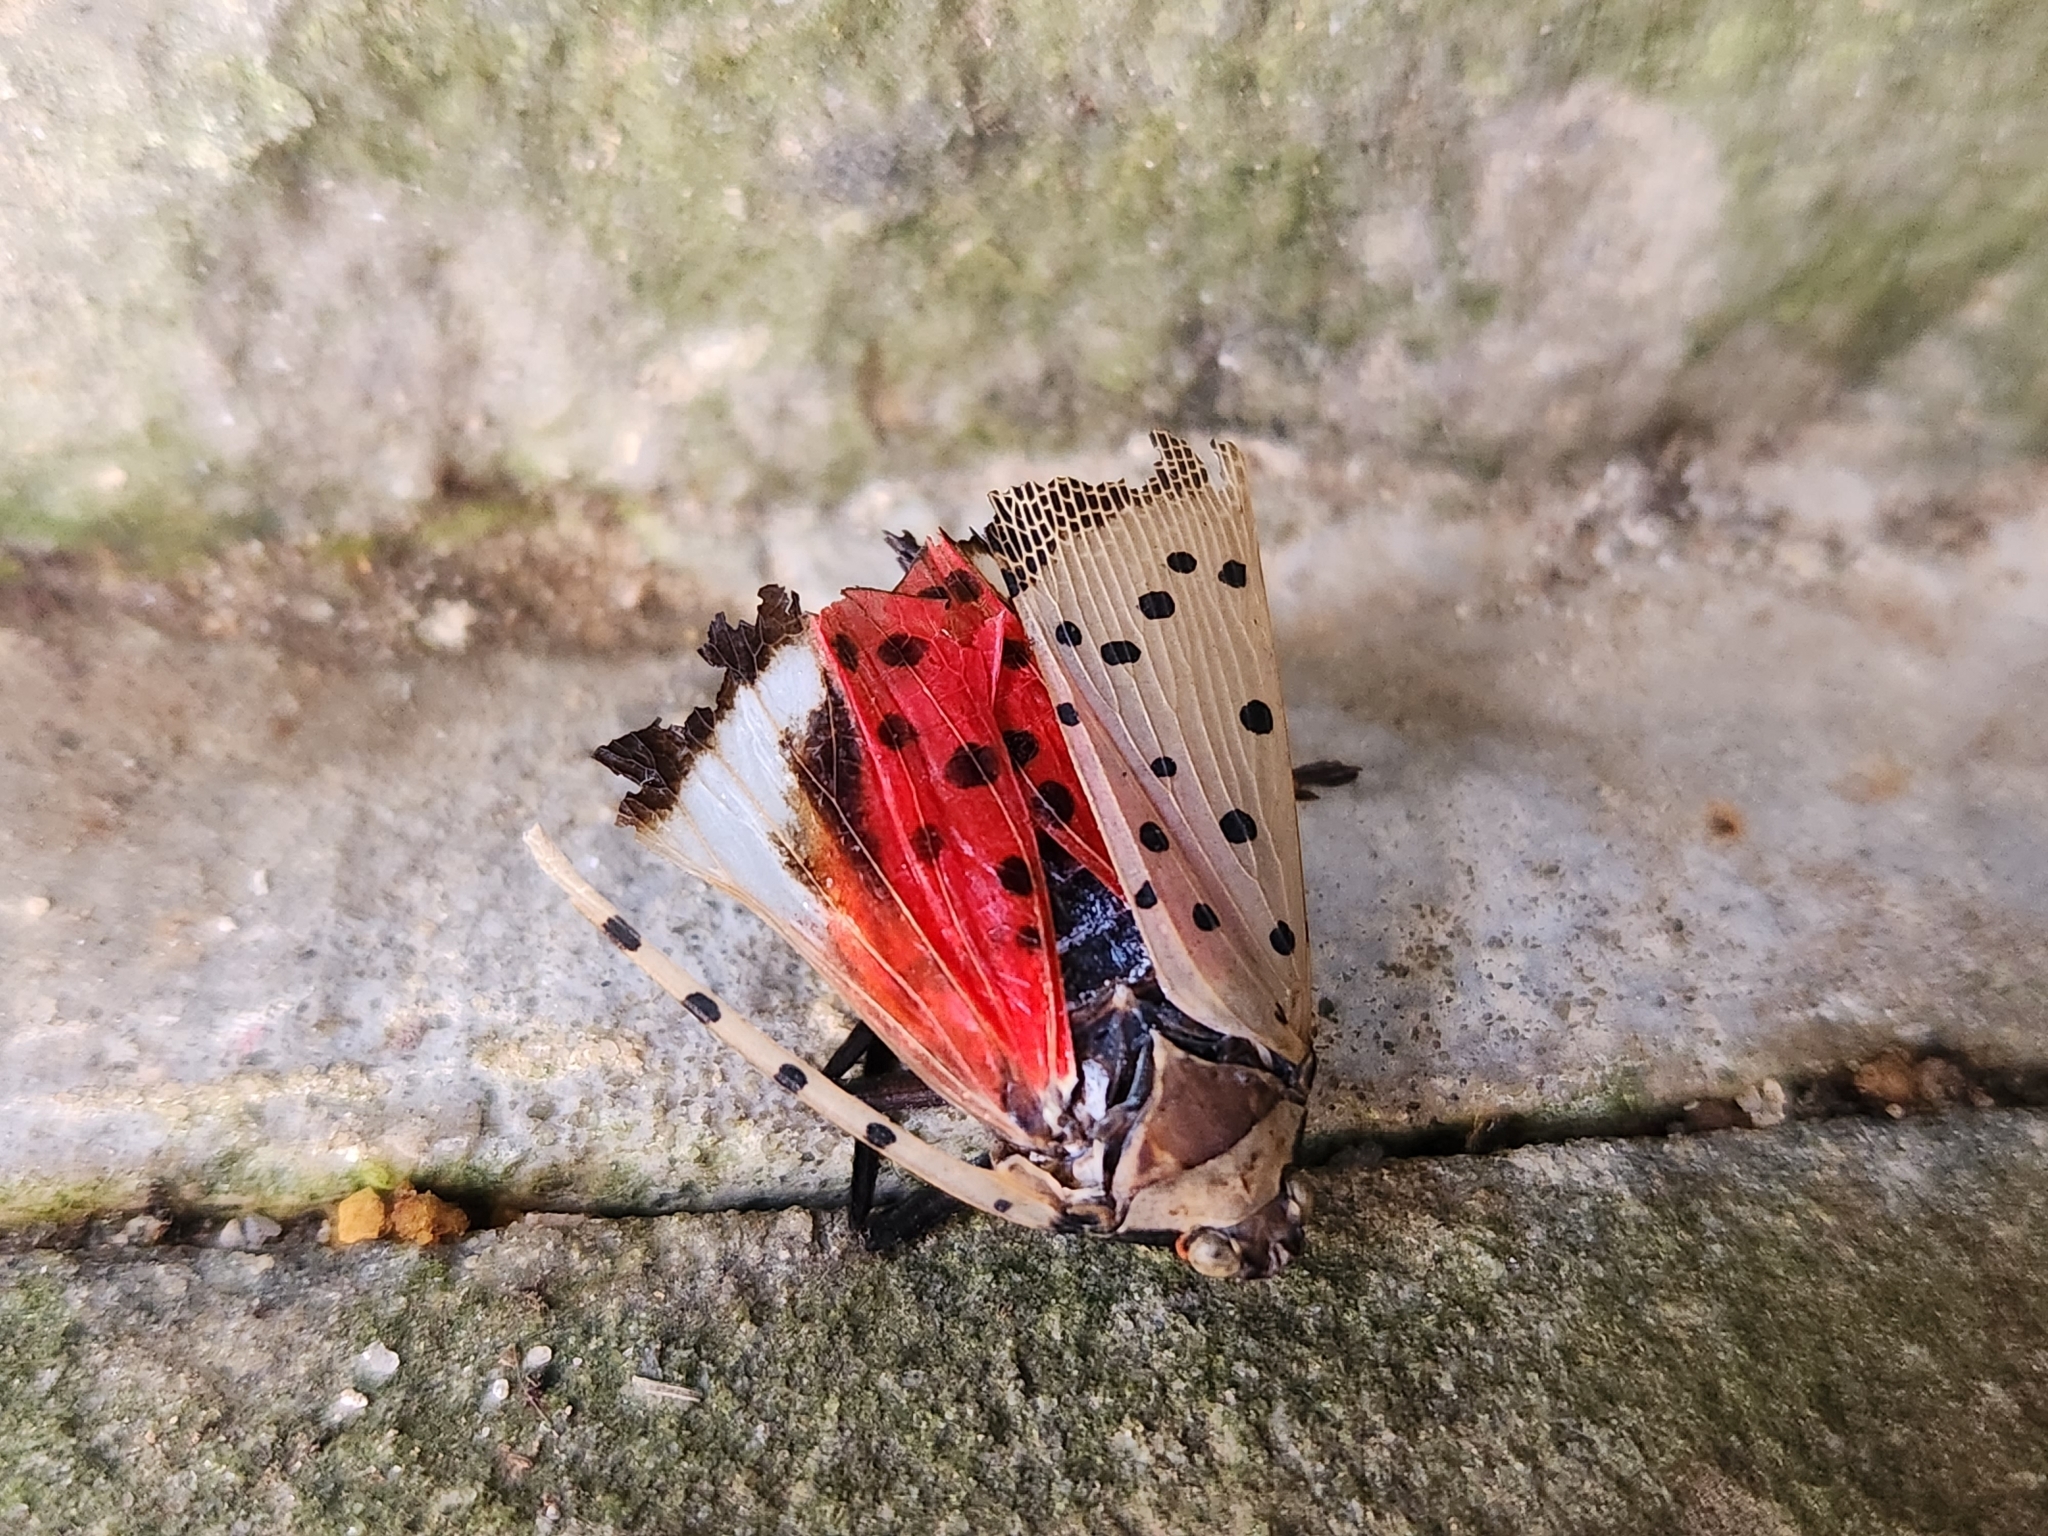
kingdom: Animalia
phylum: Arthropoda
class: Insecta
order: Hemiptera
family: Fulgoridae
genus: Lycorma
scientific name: Lycorma delicatula
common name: Spotted lanternfly
